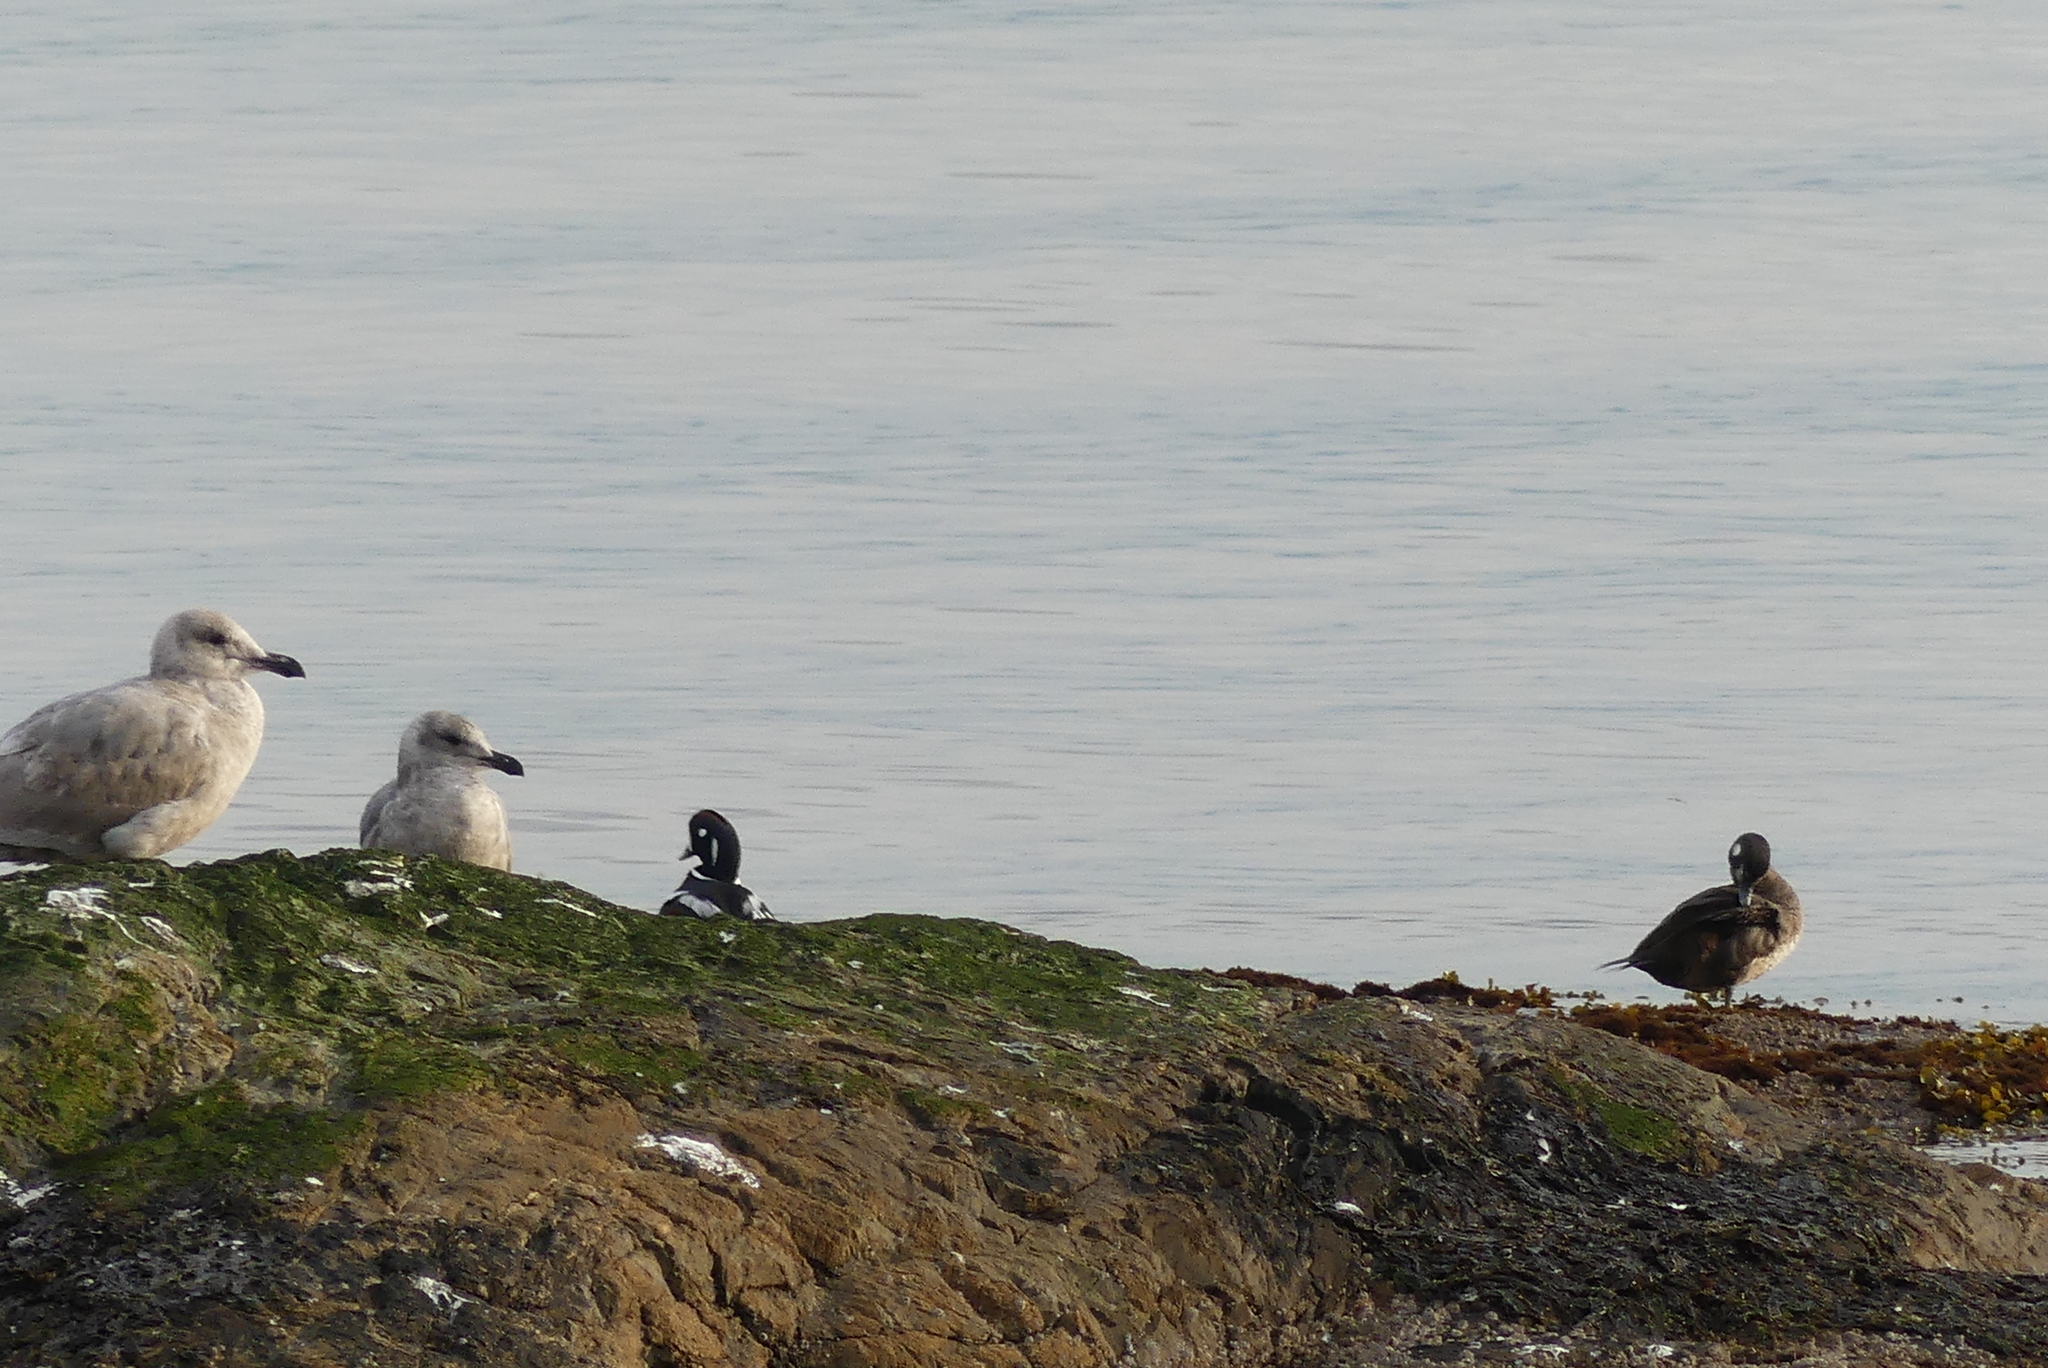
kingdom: Animalia
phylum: Chordata
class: Aves
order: Anseriformes
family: Anatidae
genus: Histrionicus
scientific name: Histrionicus histrionicus
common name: Harlequin duck
